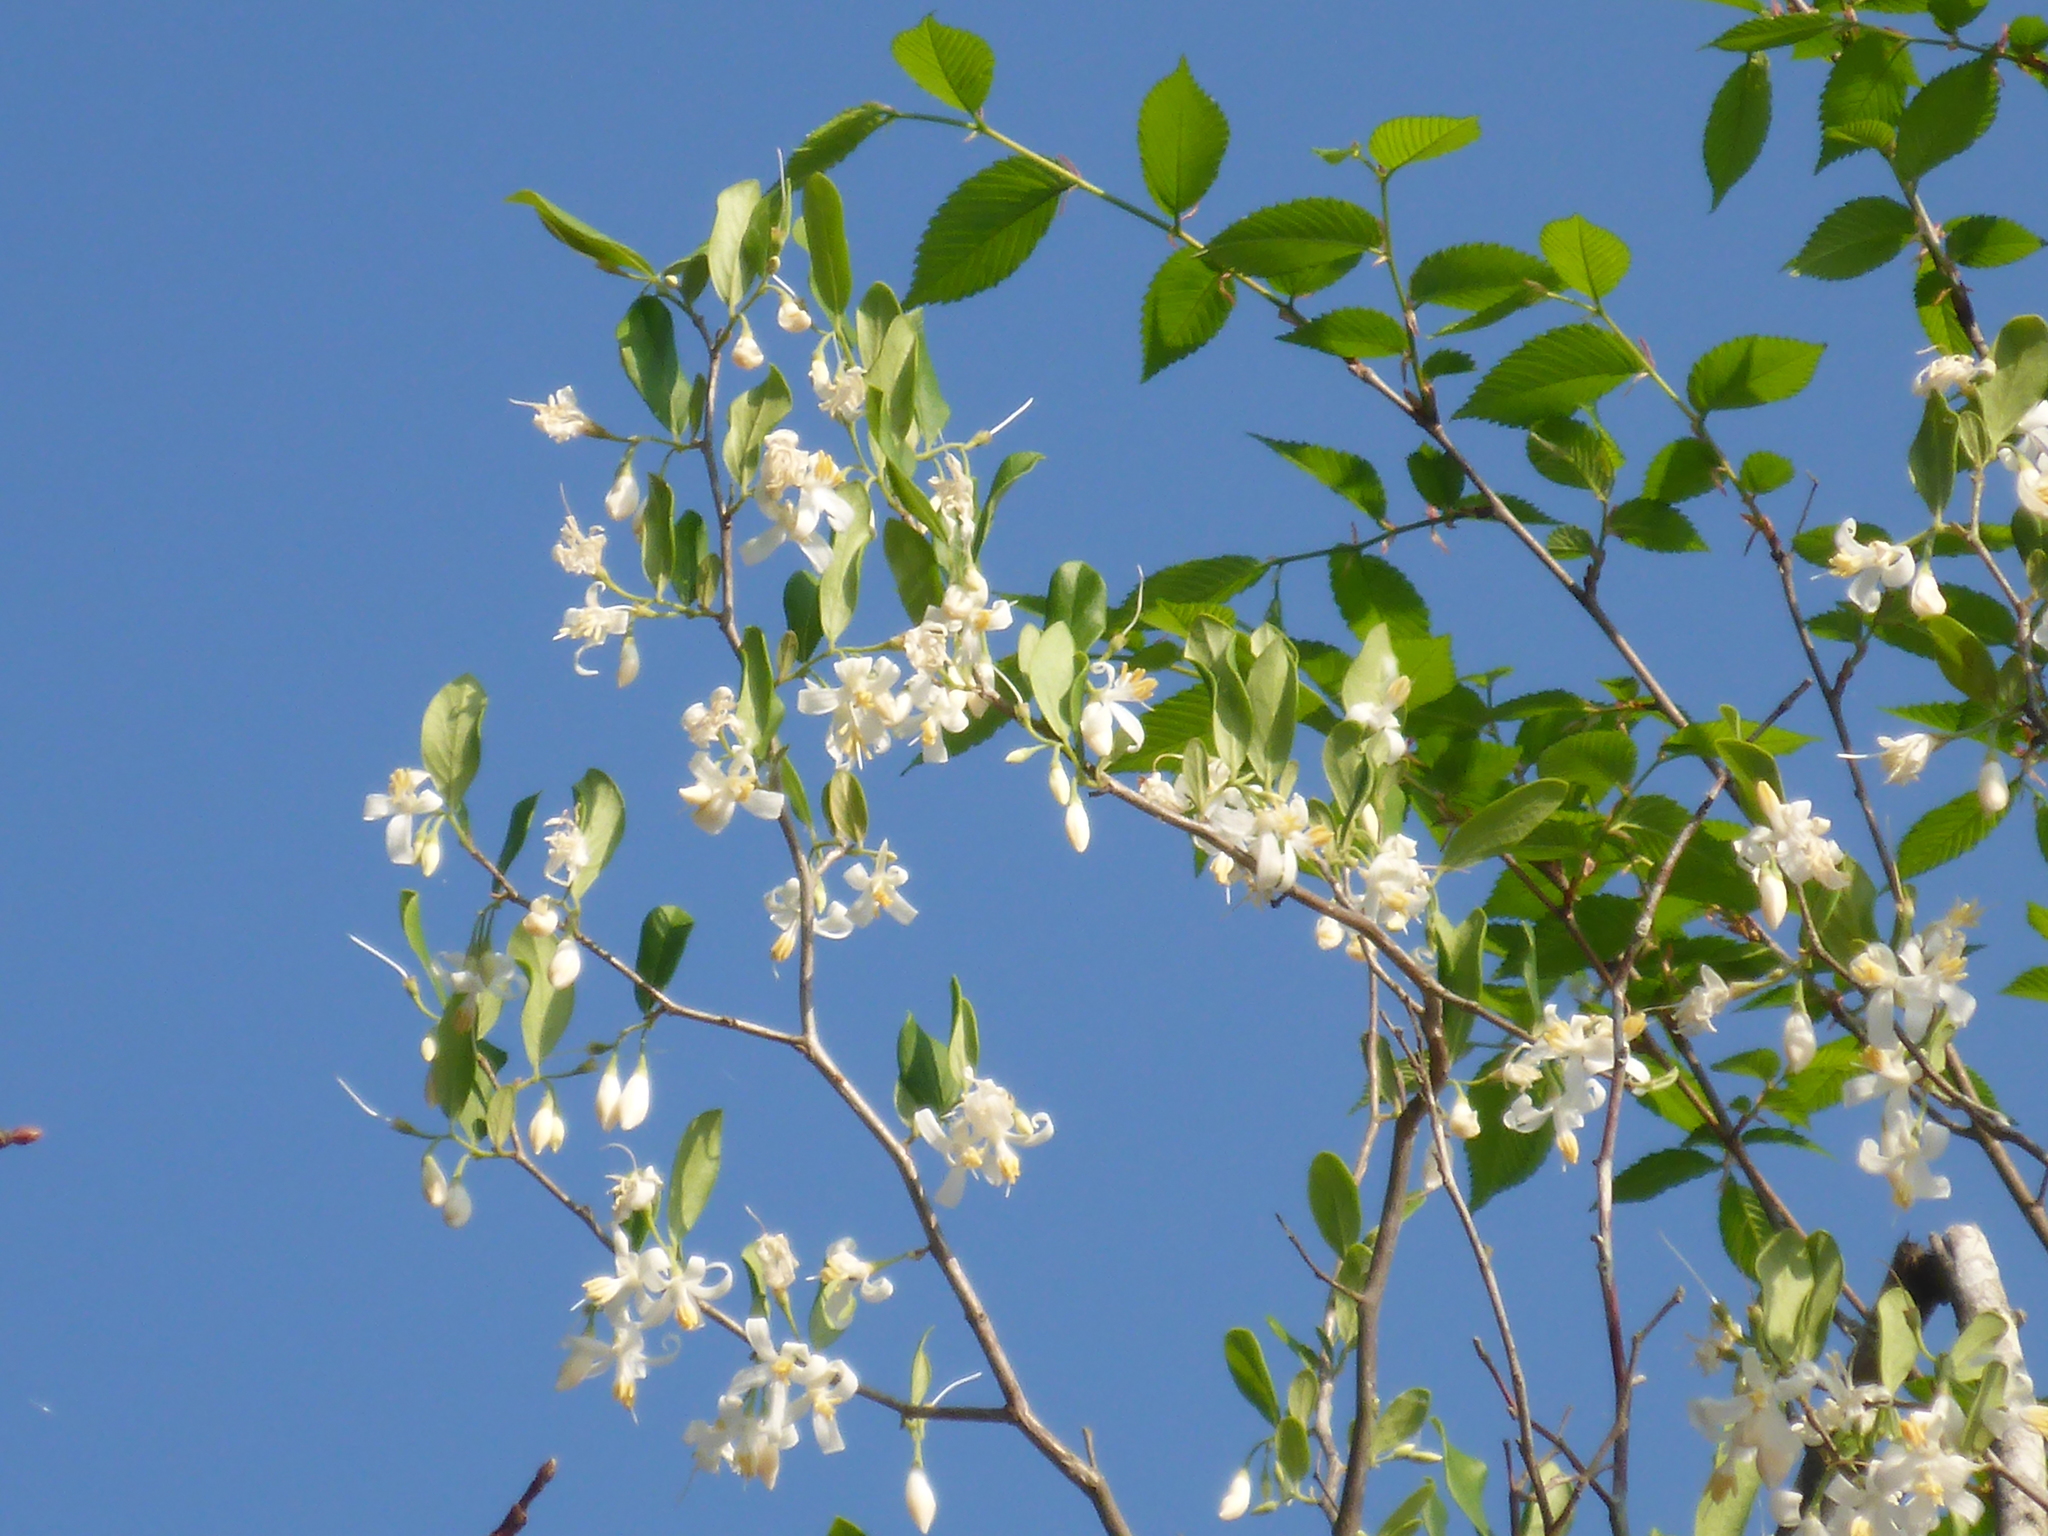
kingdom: Plantae
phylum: Tracheophyta
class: Magnoliopsida
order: Ericales
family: Styracaceae
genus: Styrax
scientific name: Styrax americanus
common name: American snowbell
